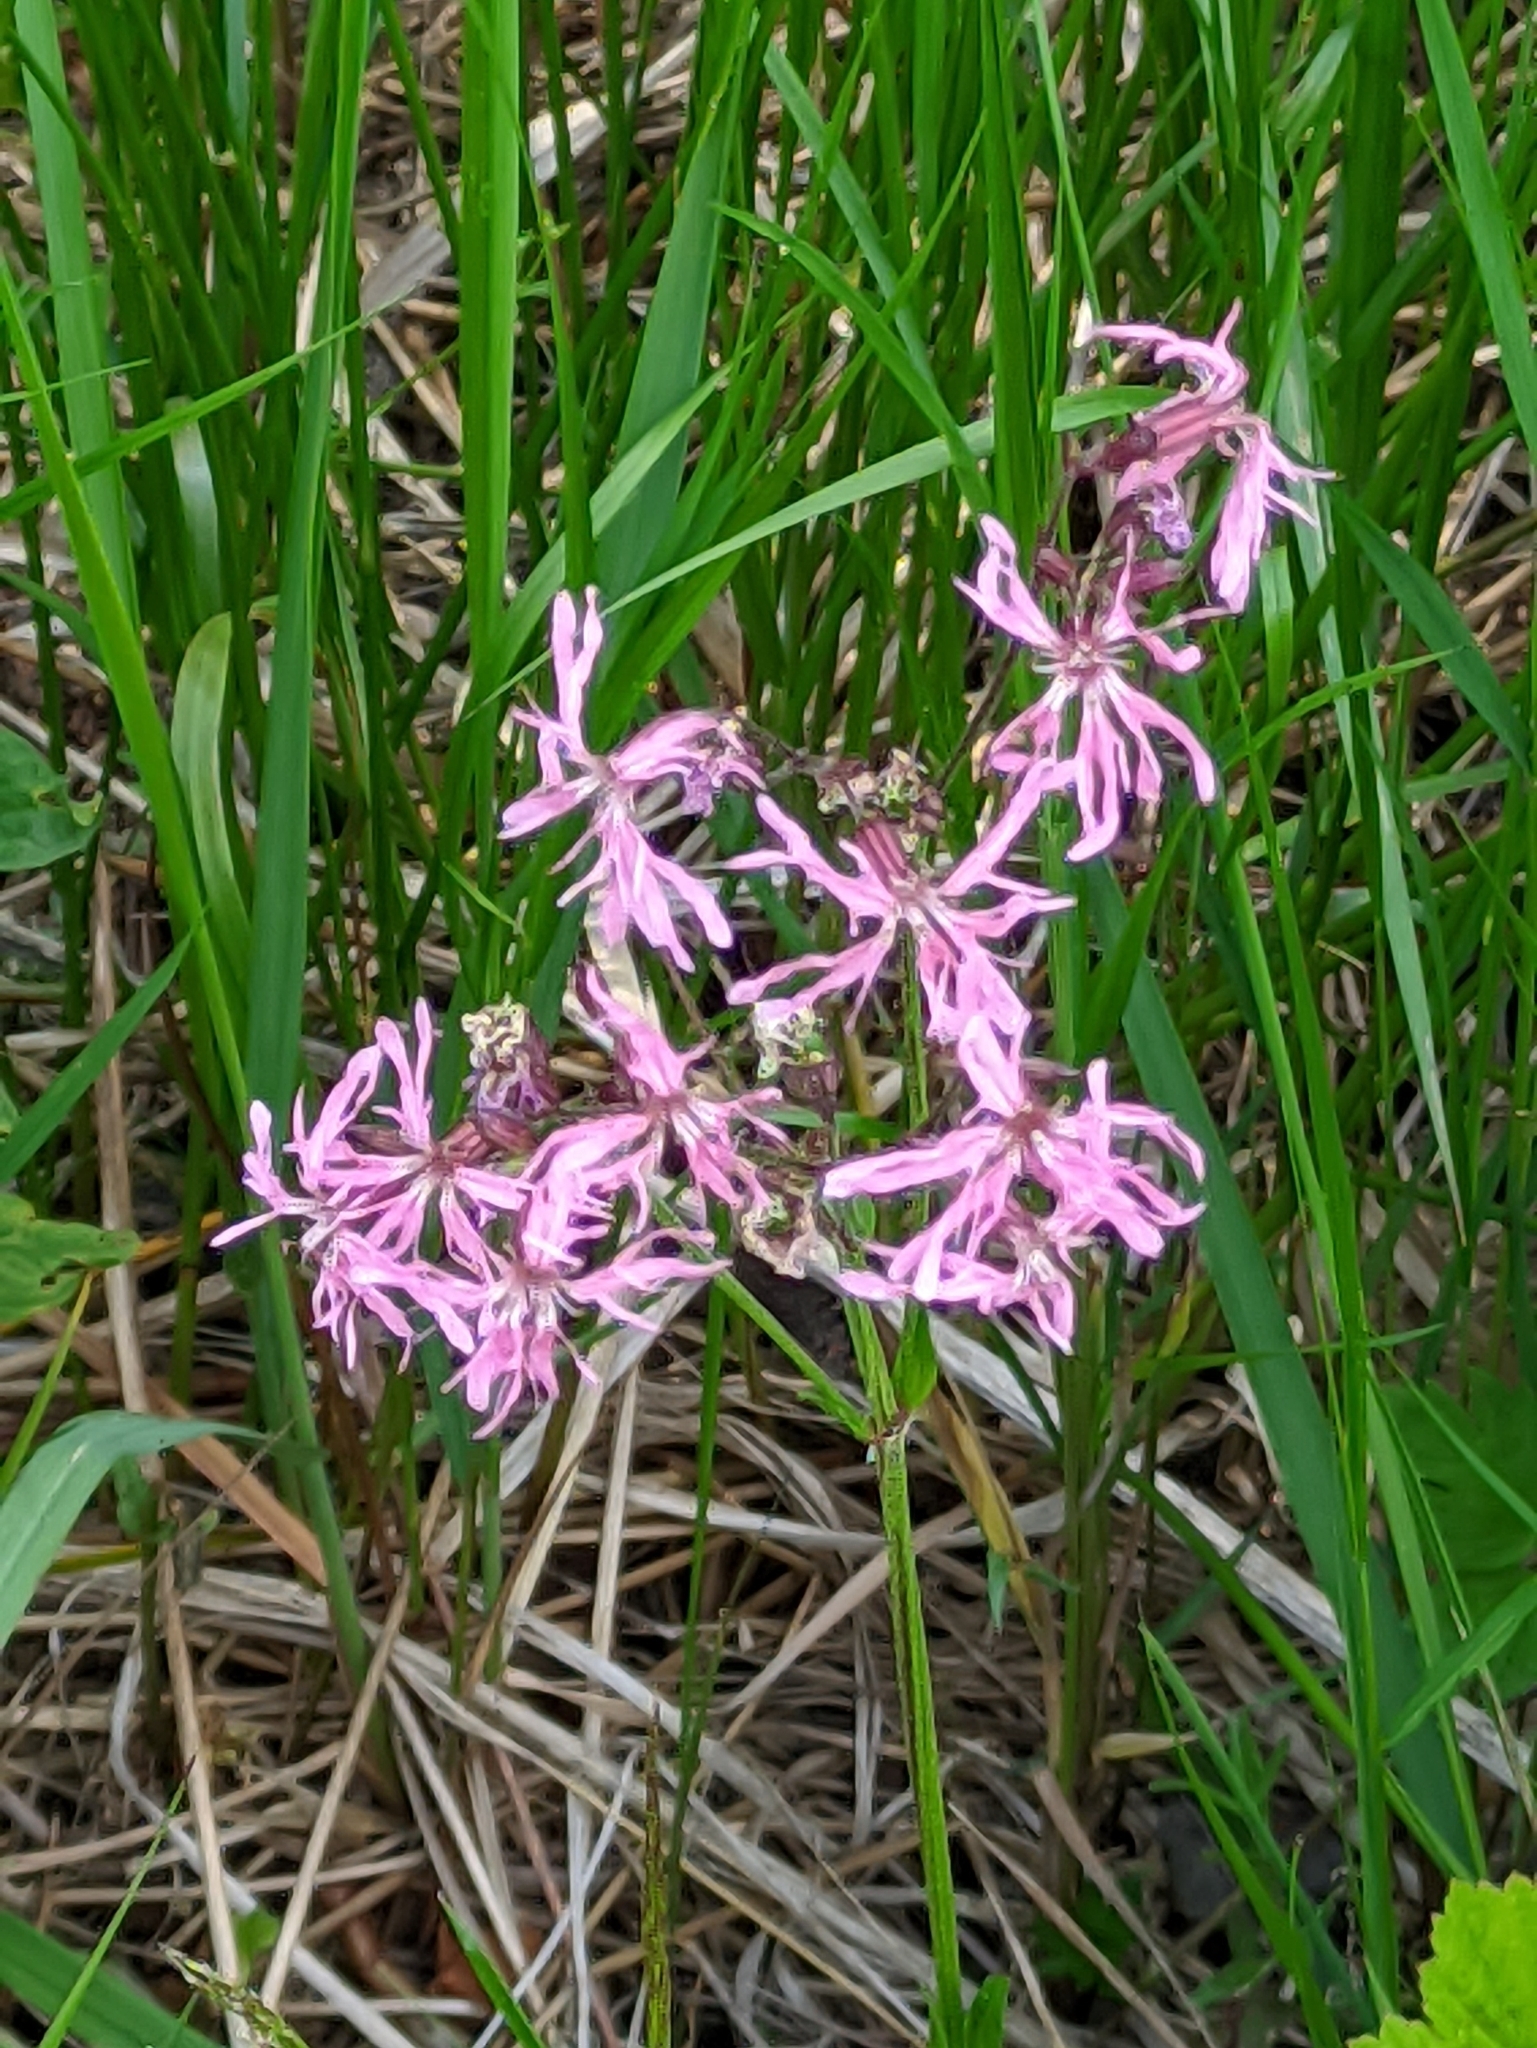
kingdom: Plantae
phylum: Tracheophyta
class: Magnoliopsida
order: Caryophyllales
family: Caryophyllaceae
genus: Silene
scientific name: Silene flos-cuculi
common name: Ragged-robin
